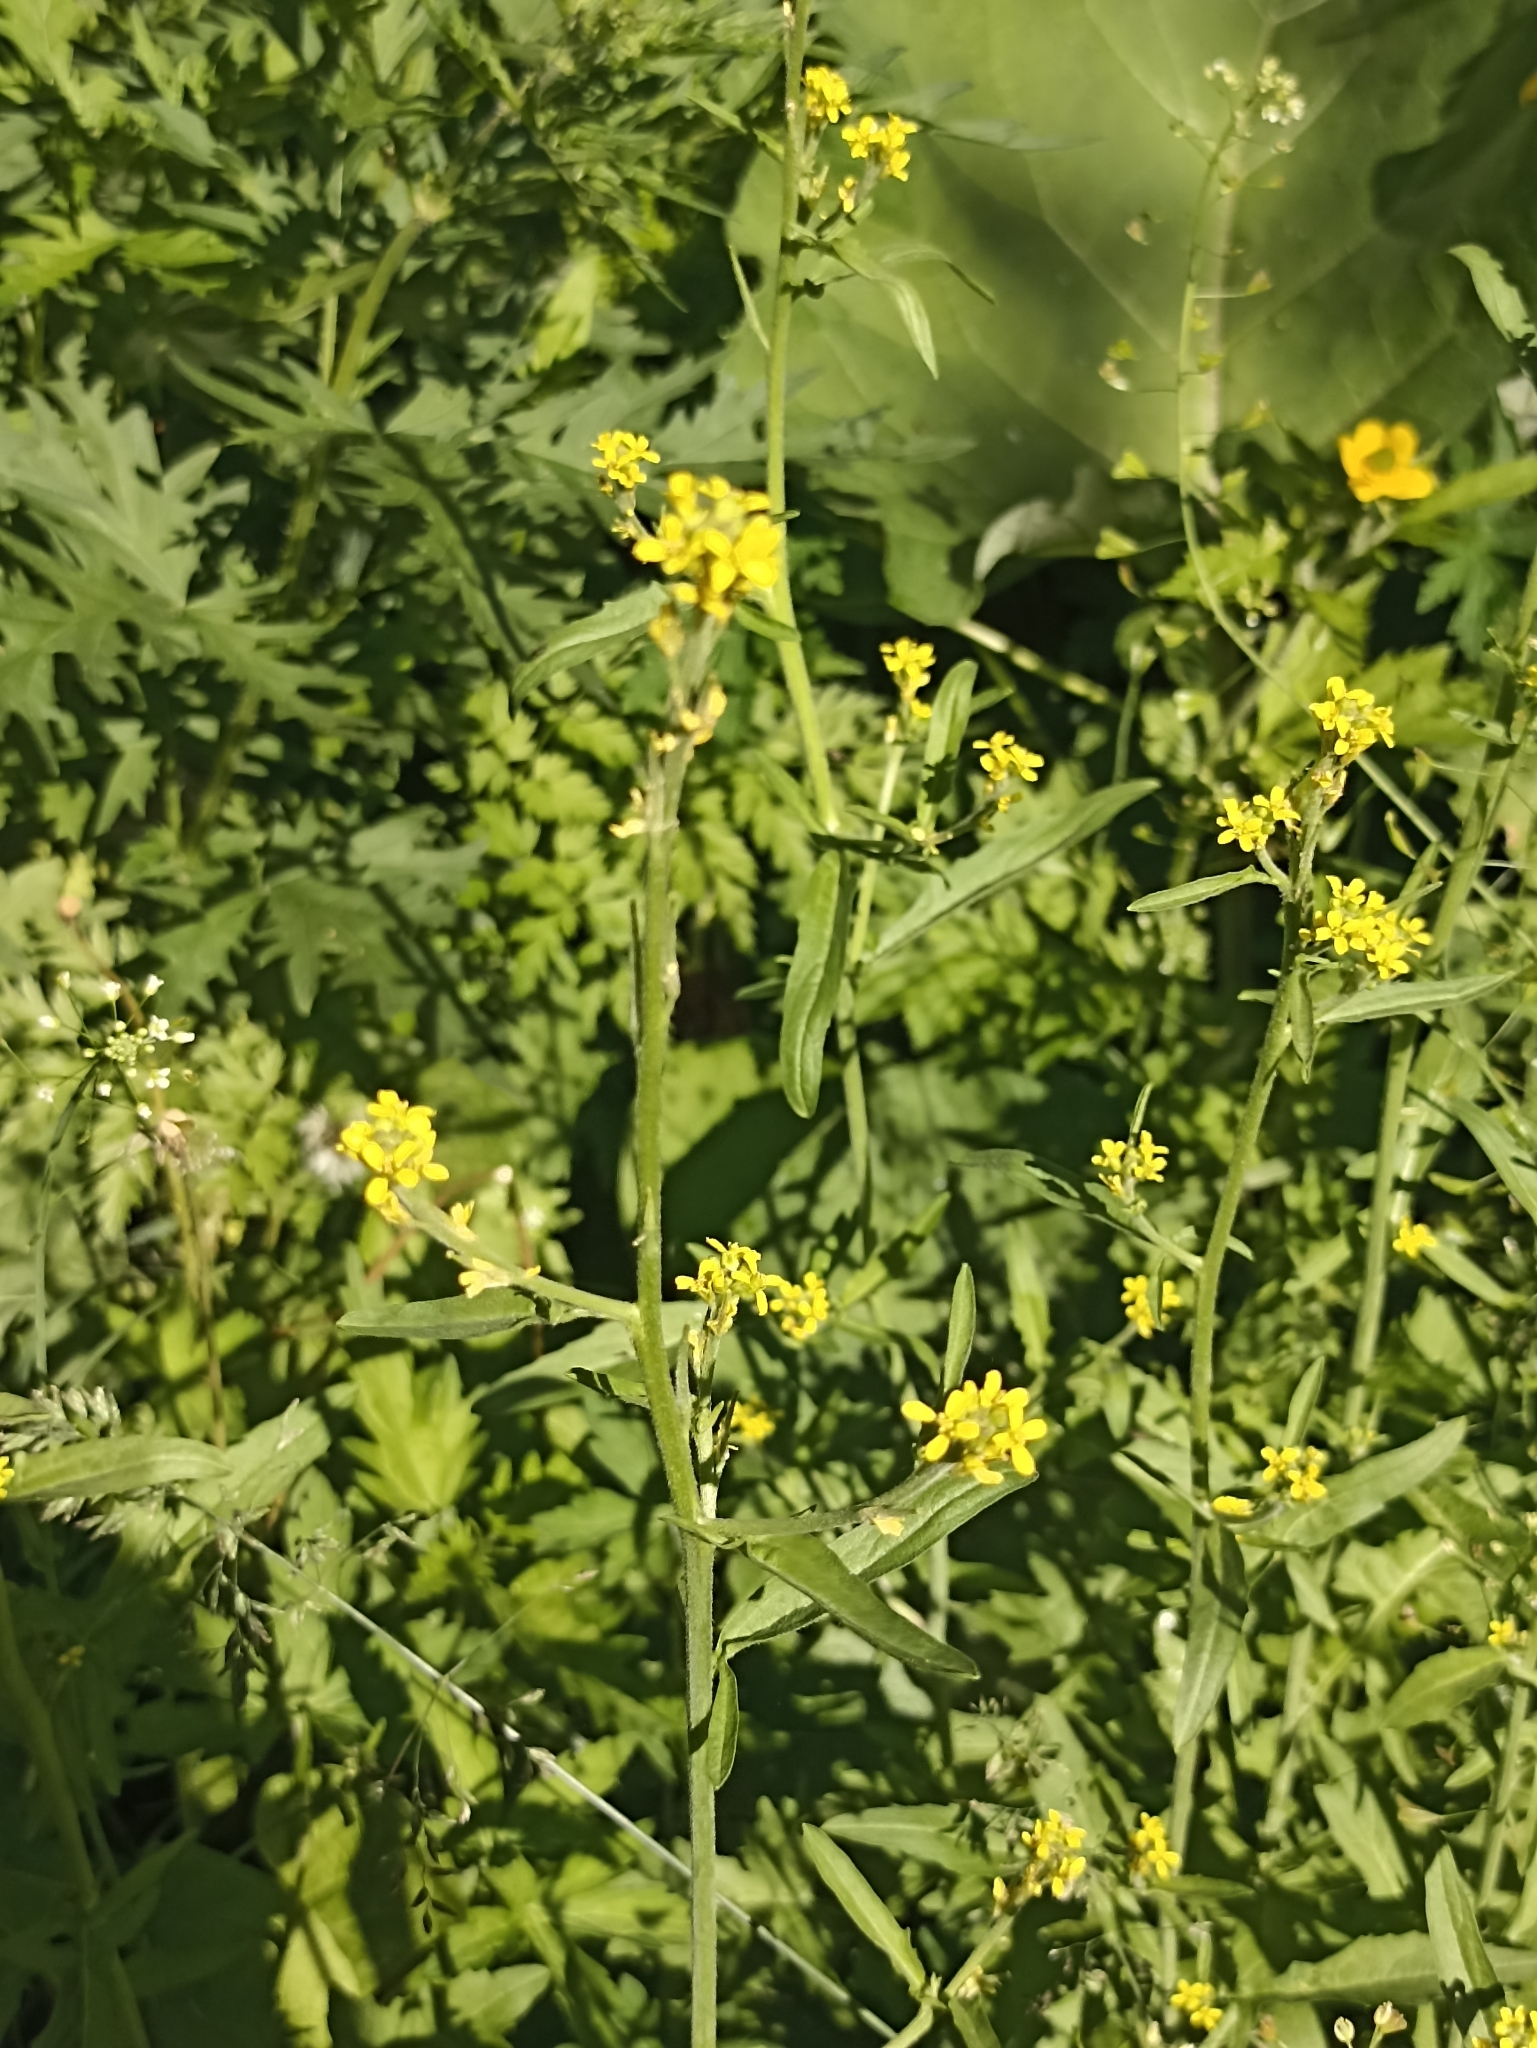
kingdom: Plantae
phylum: Tracheophyta
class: Magnoliopsida
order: Brassicales
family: Brassicaceae
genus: Sisymbrium
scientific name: Sisymbrium officinale
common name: Hedge mustard
